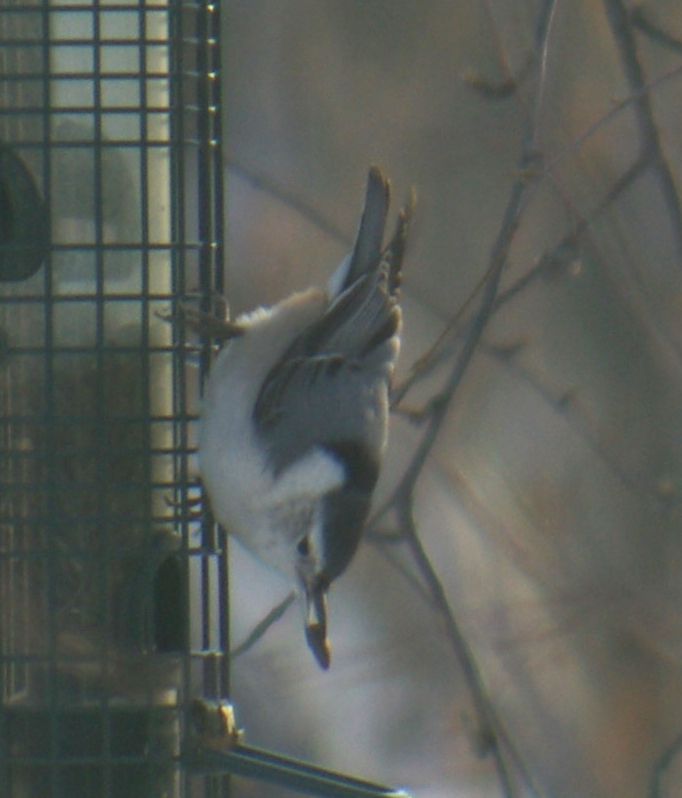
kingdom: Animalia
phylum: Chordata
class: Aves
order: Passeriformes
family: Sittidae
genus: Sitta
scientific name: Sitta carolinensis
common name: White-breasted nuthatch
